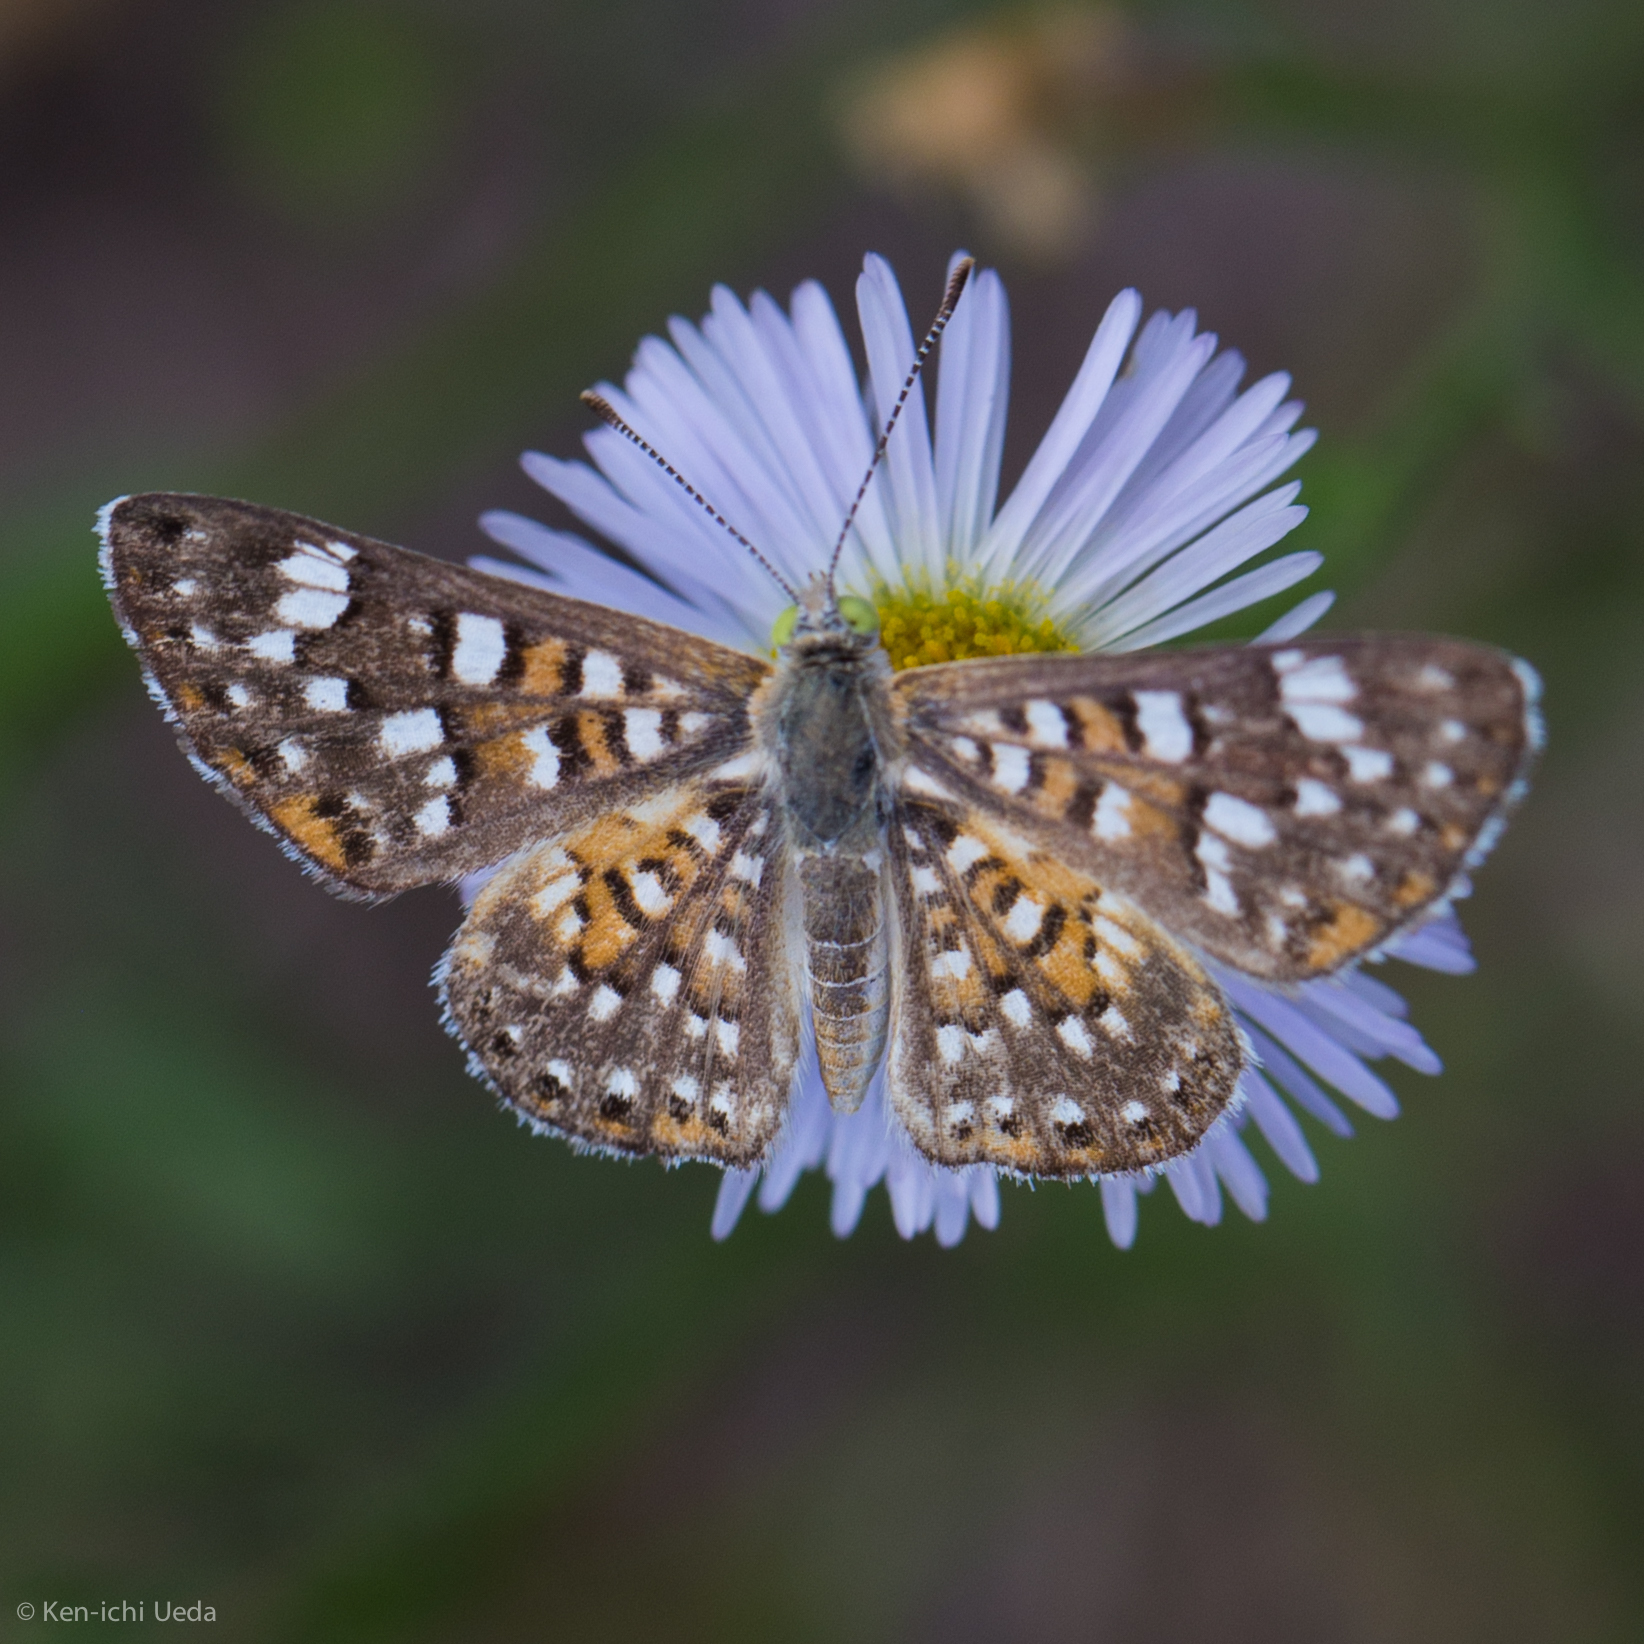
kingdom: Animalia
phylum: Arthropoda
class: Insecta
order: Lepidoptera
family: Riodinidae
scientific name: Riodinidae
